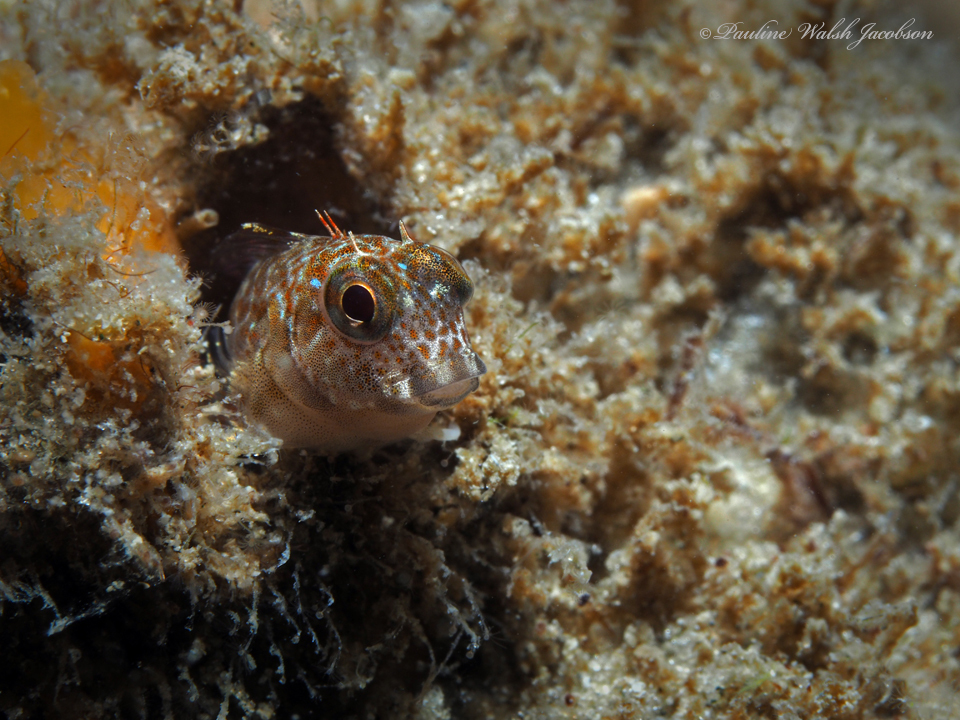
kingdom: Animalia
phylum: Chordata
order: Perciformes
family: Blenniidae
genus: Scartella
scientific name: Scartella cristata
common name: Molly miller
